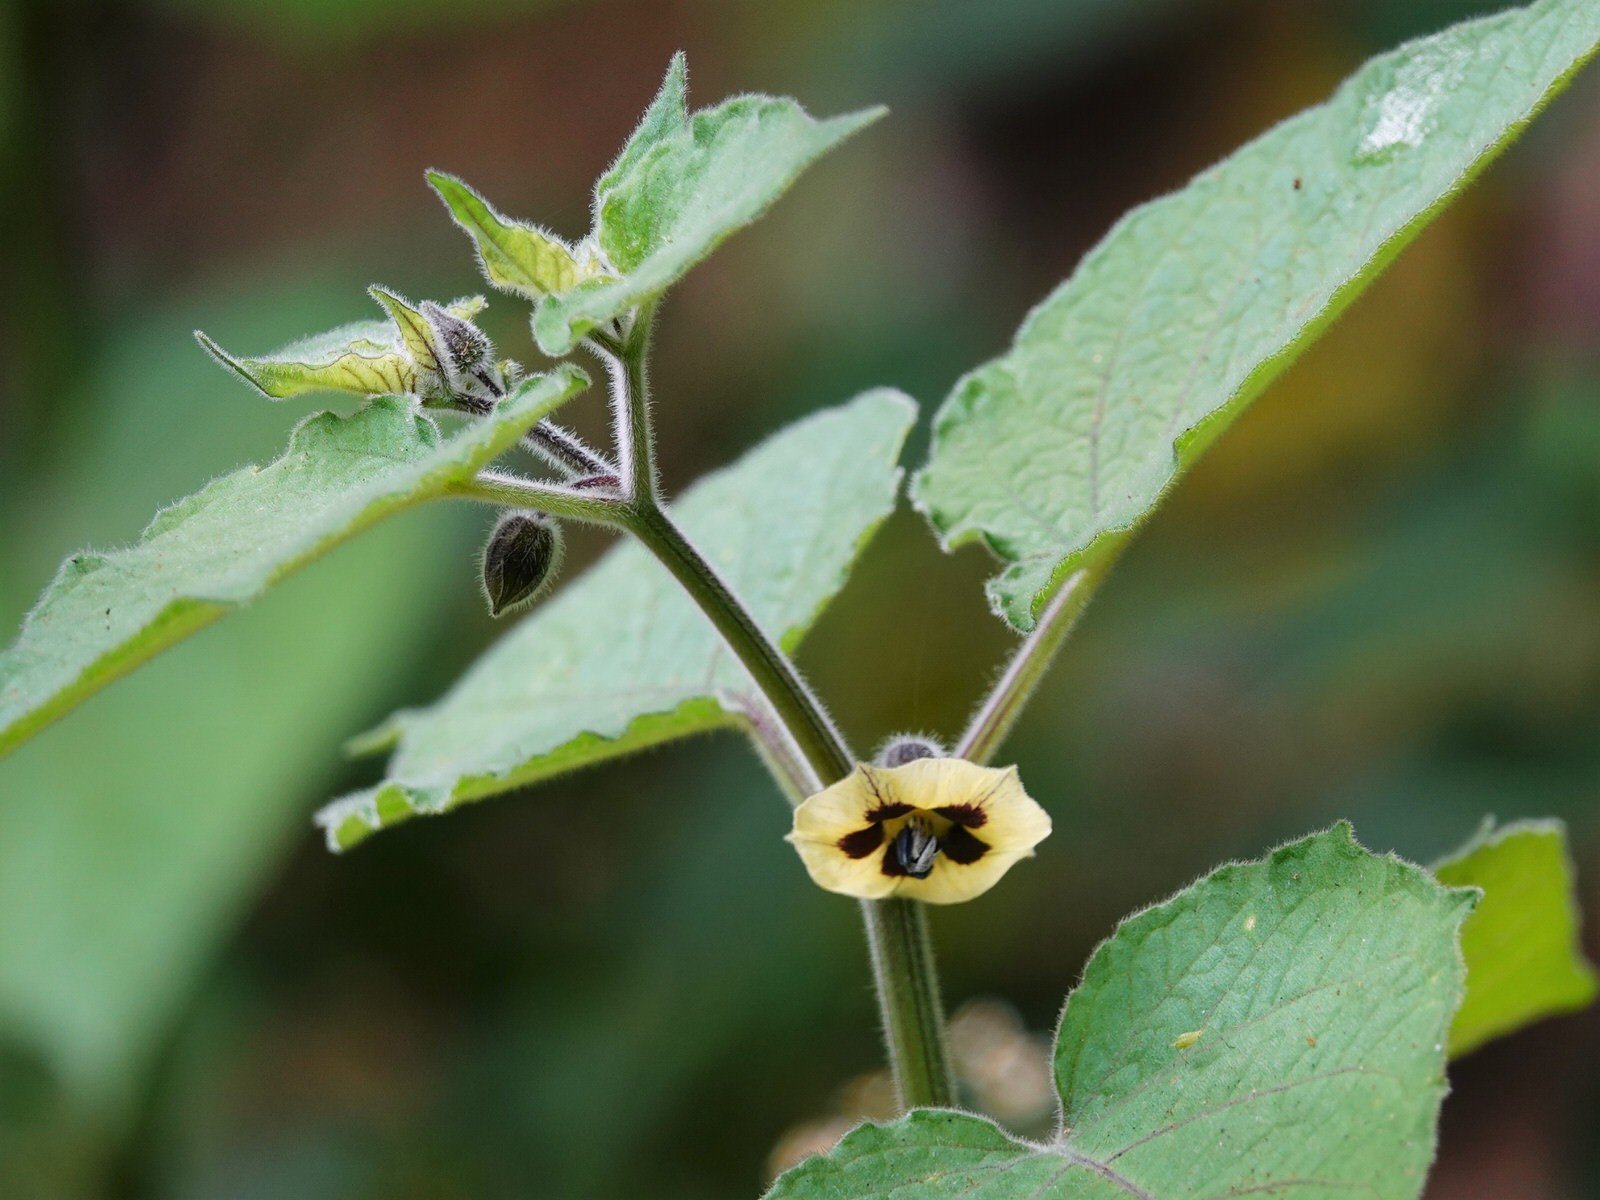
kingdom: Plantae
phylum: Tracheophyta
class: Magnoliopsida
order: Solanales
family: Solanaceae
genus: Physalis
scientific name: Physalis peruviana
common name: Cape-gooseberry
